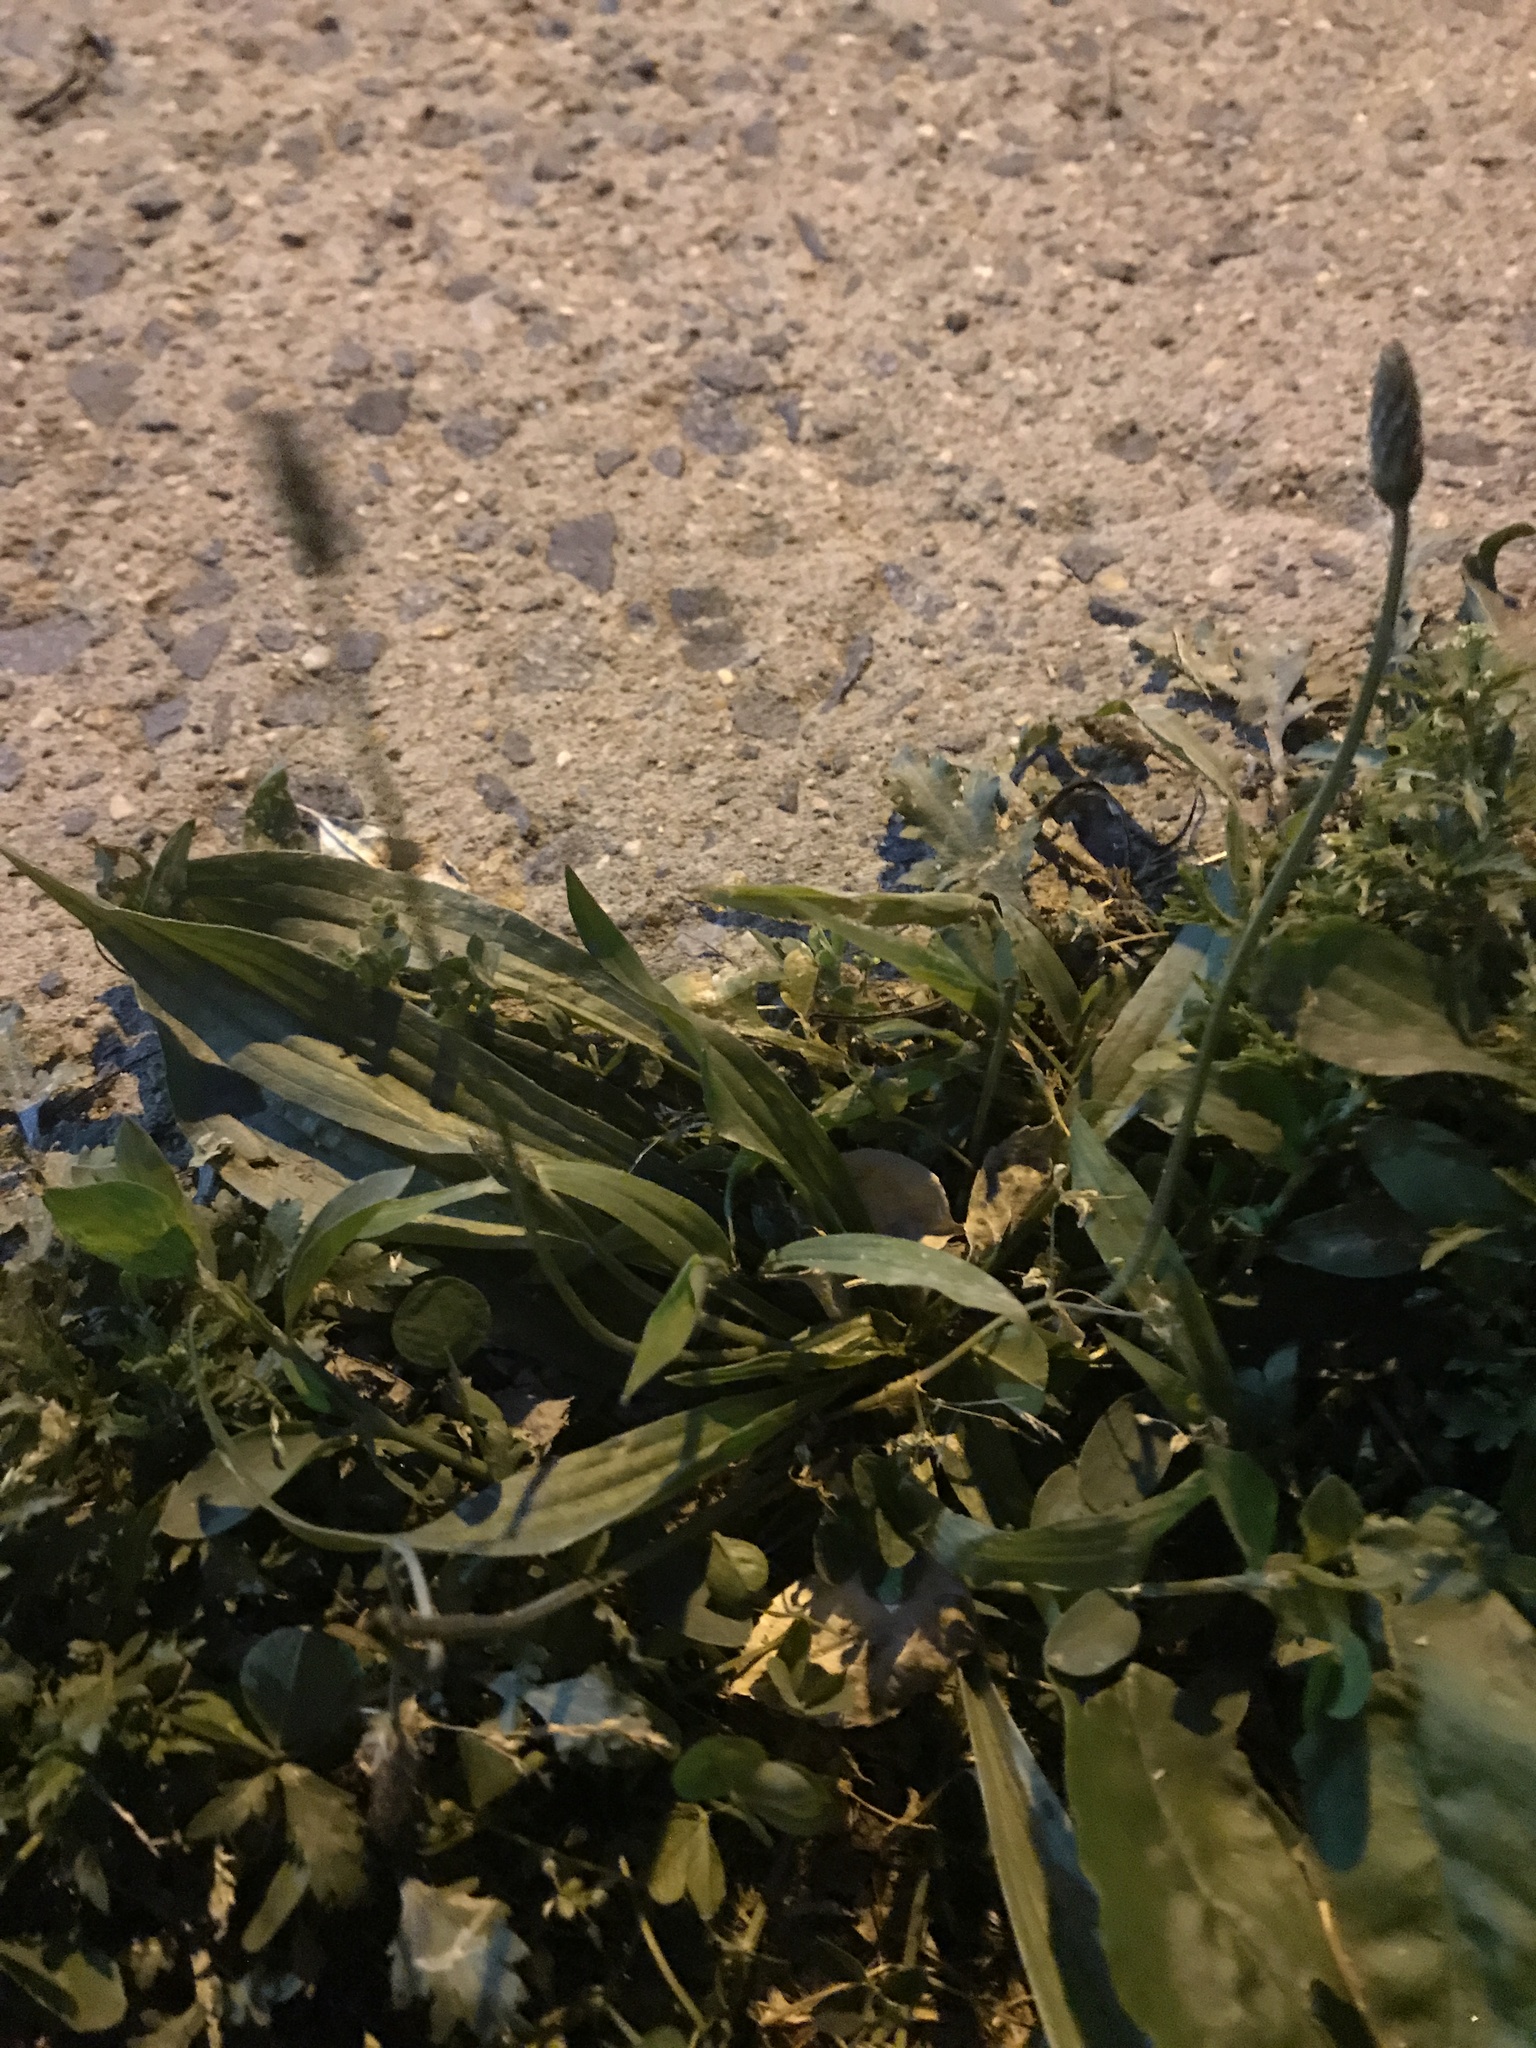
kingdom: Plantae
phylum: Tracheophyta
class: Magnoliopsida
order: Lamiales
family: Plantaginaceae
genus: Plantago
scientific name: Plantago lanceolata
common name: Ribwort plantain
